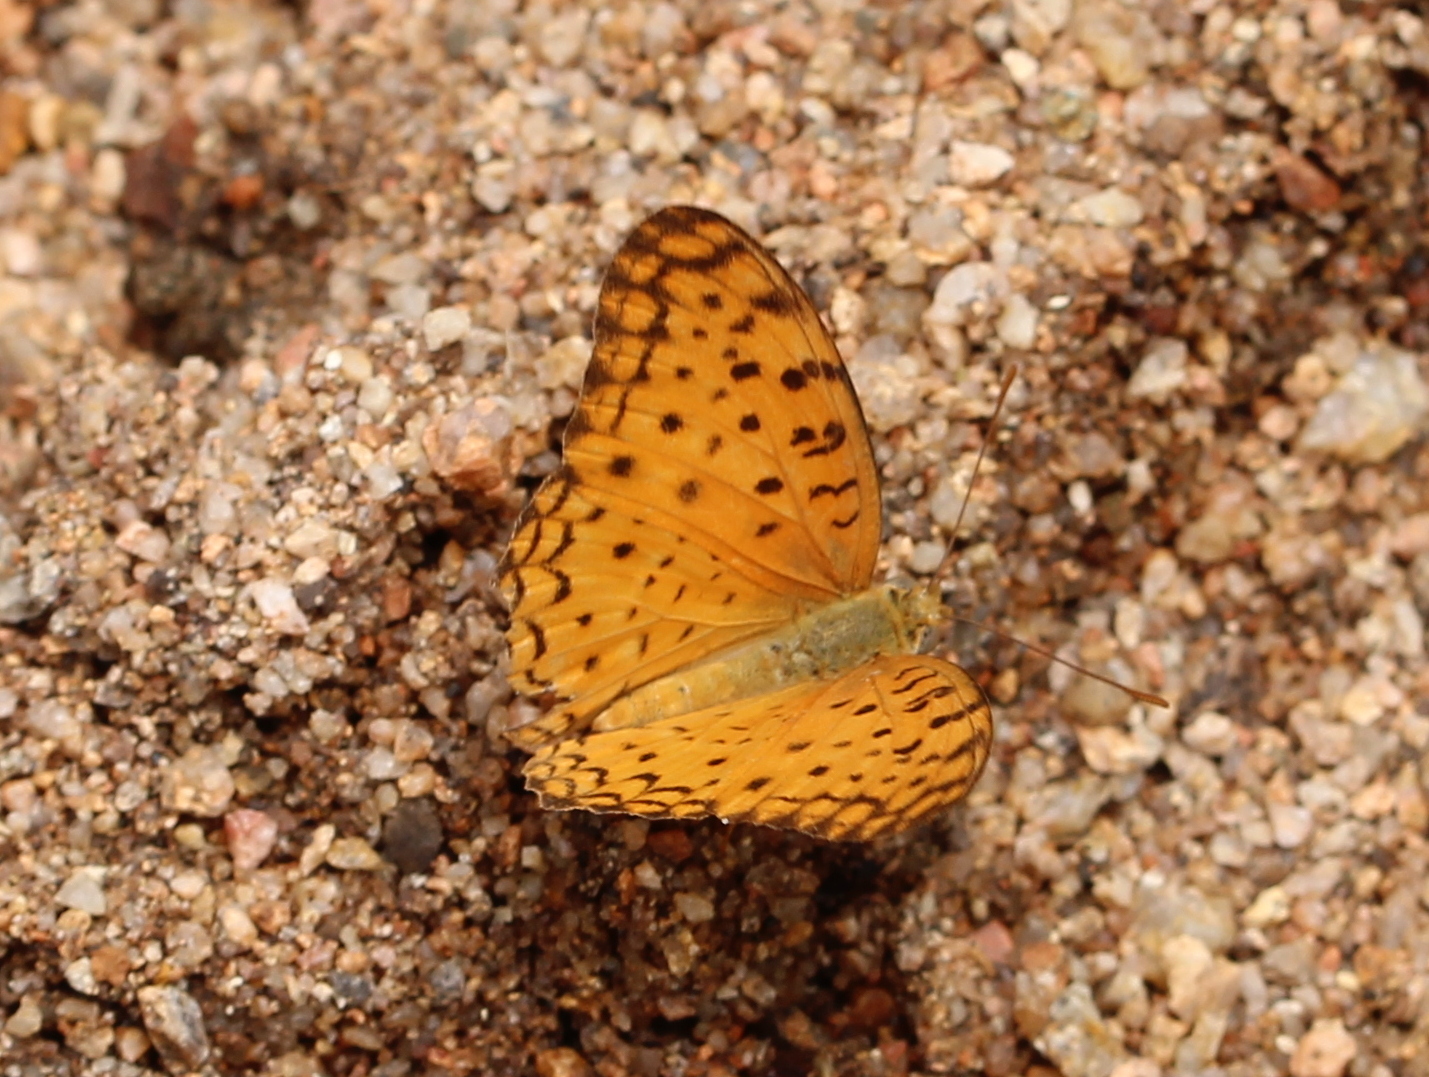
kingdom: Animalia
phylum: Arthropoda
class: Insecta
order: Lepidoptera
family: Nymphalidae
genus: Phalanta
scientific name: Phalanta phalantha
